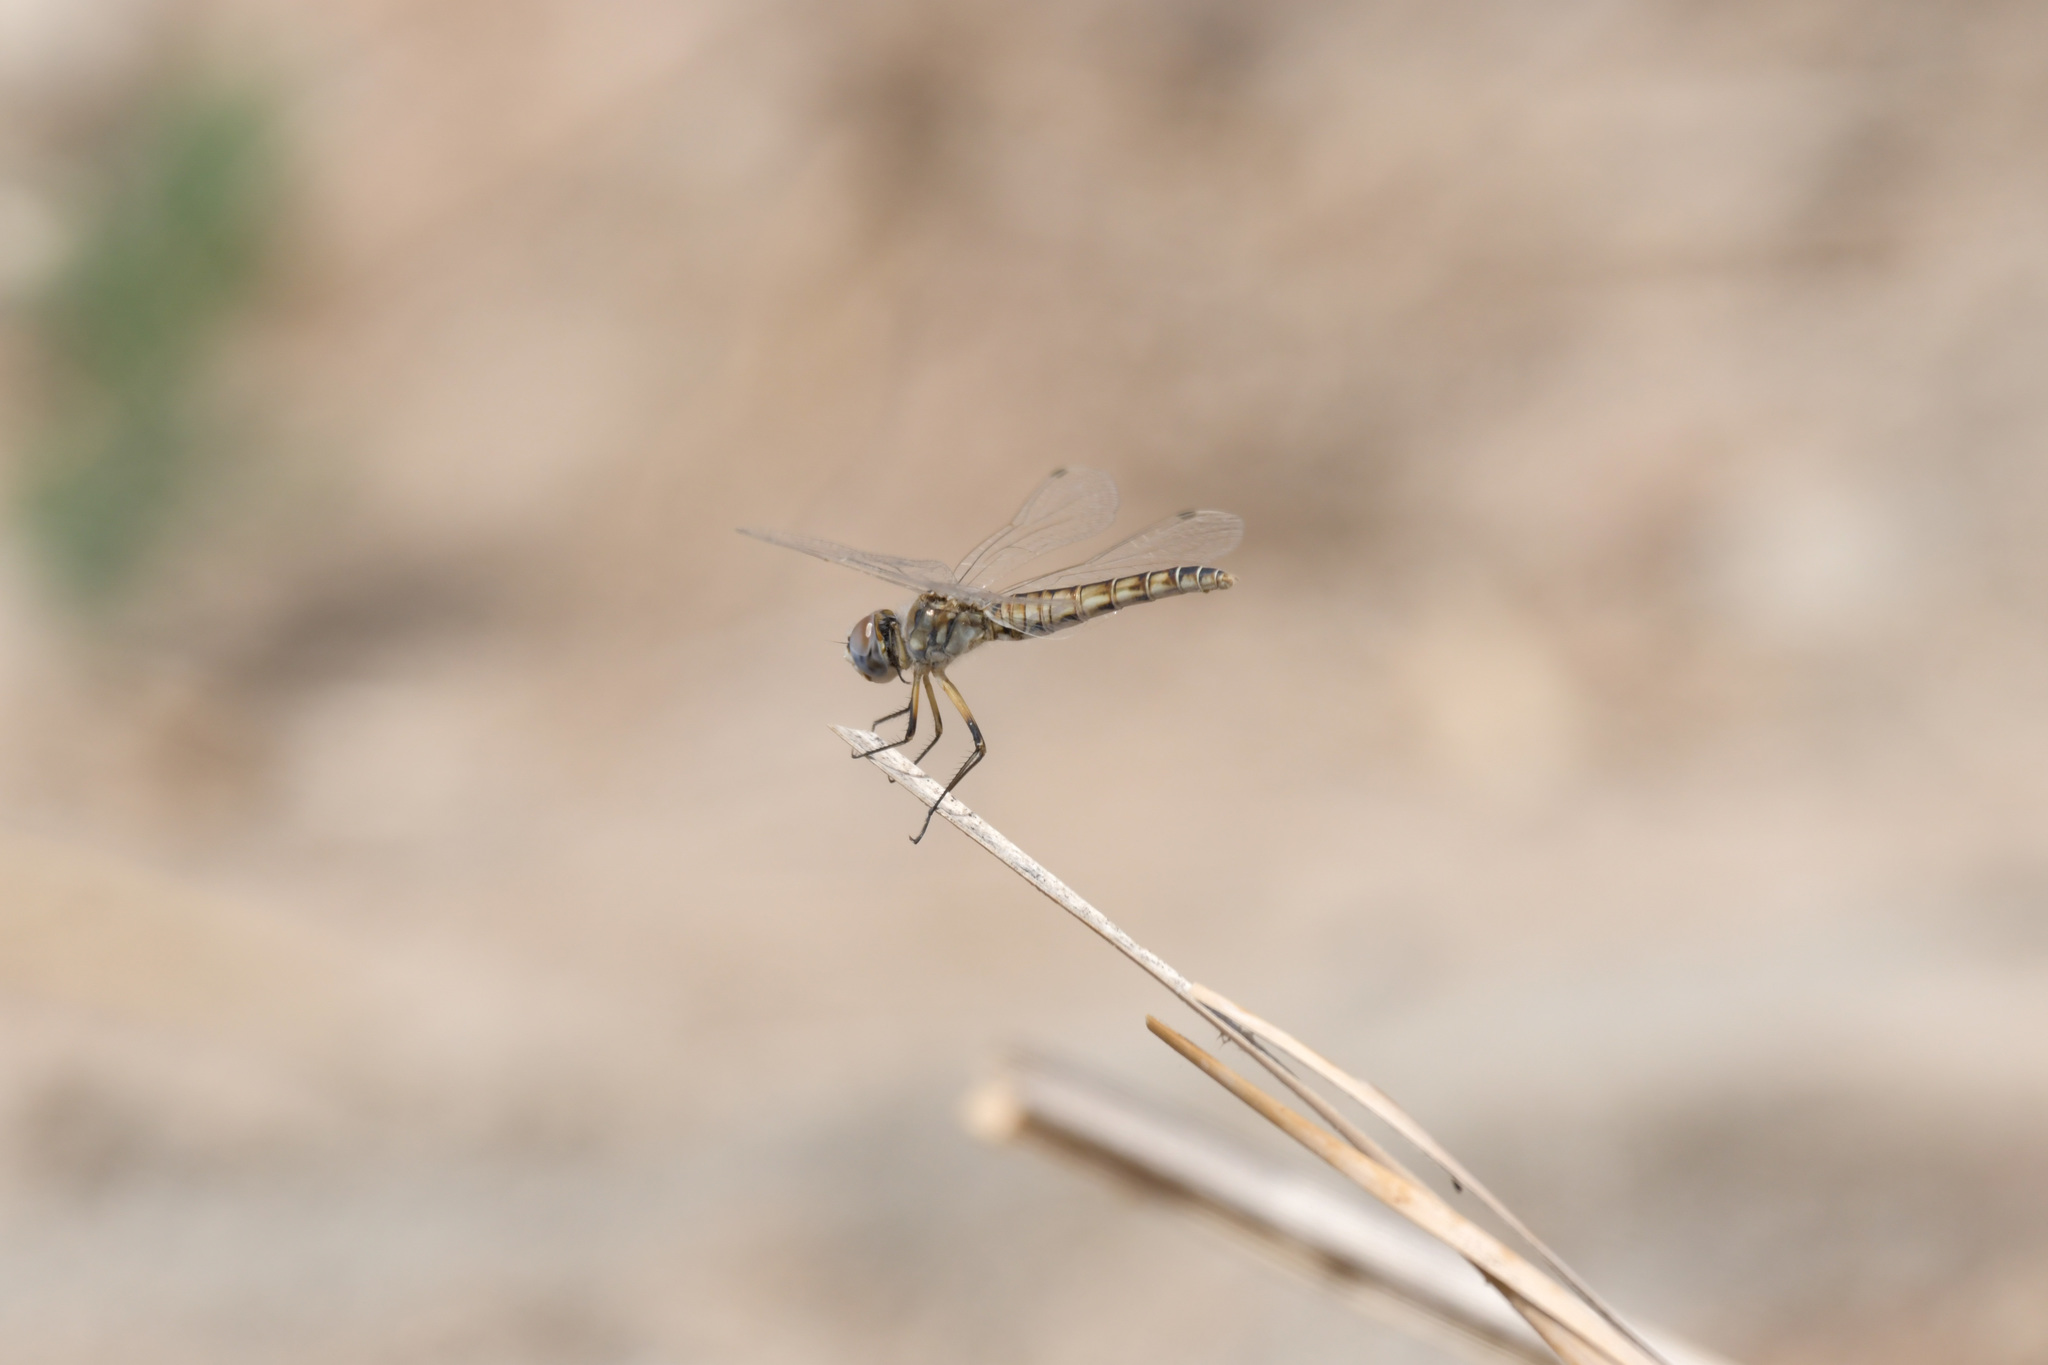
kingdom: Animalia
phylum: Arthropoda
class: Insecta
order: Odonata
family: Libellulidae
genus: Selysiothemis
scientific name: Selysiothemis nigra
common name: Black pennant
